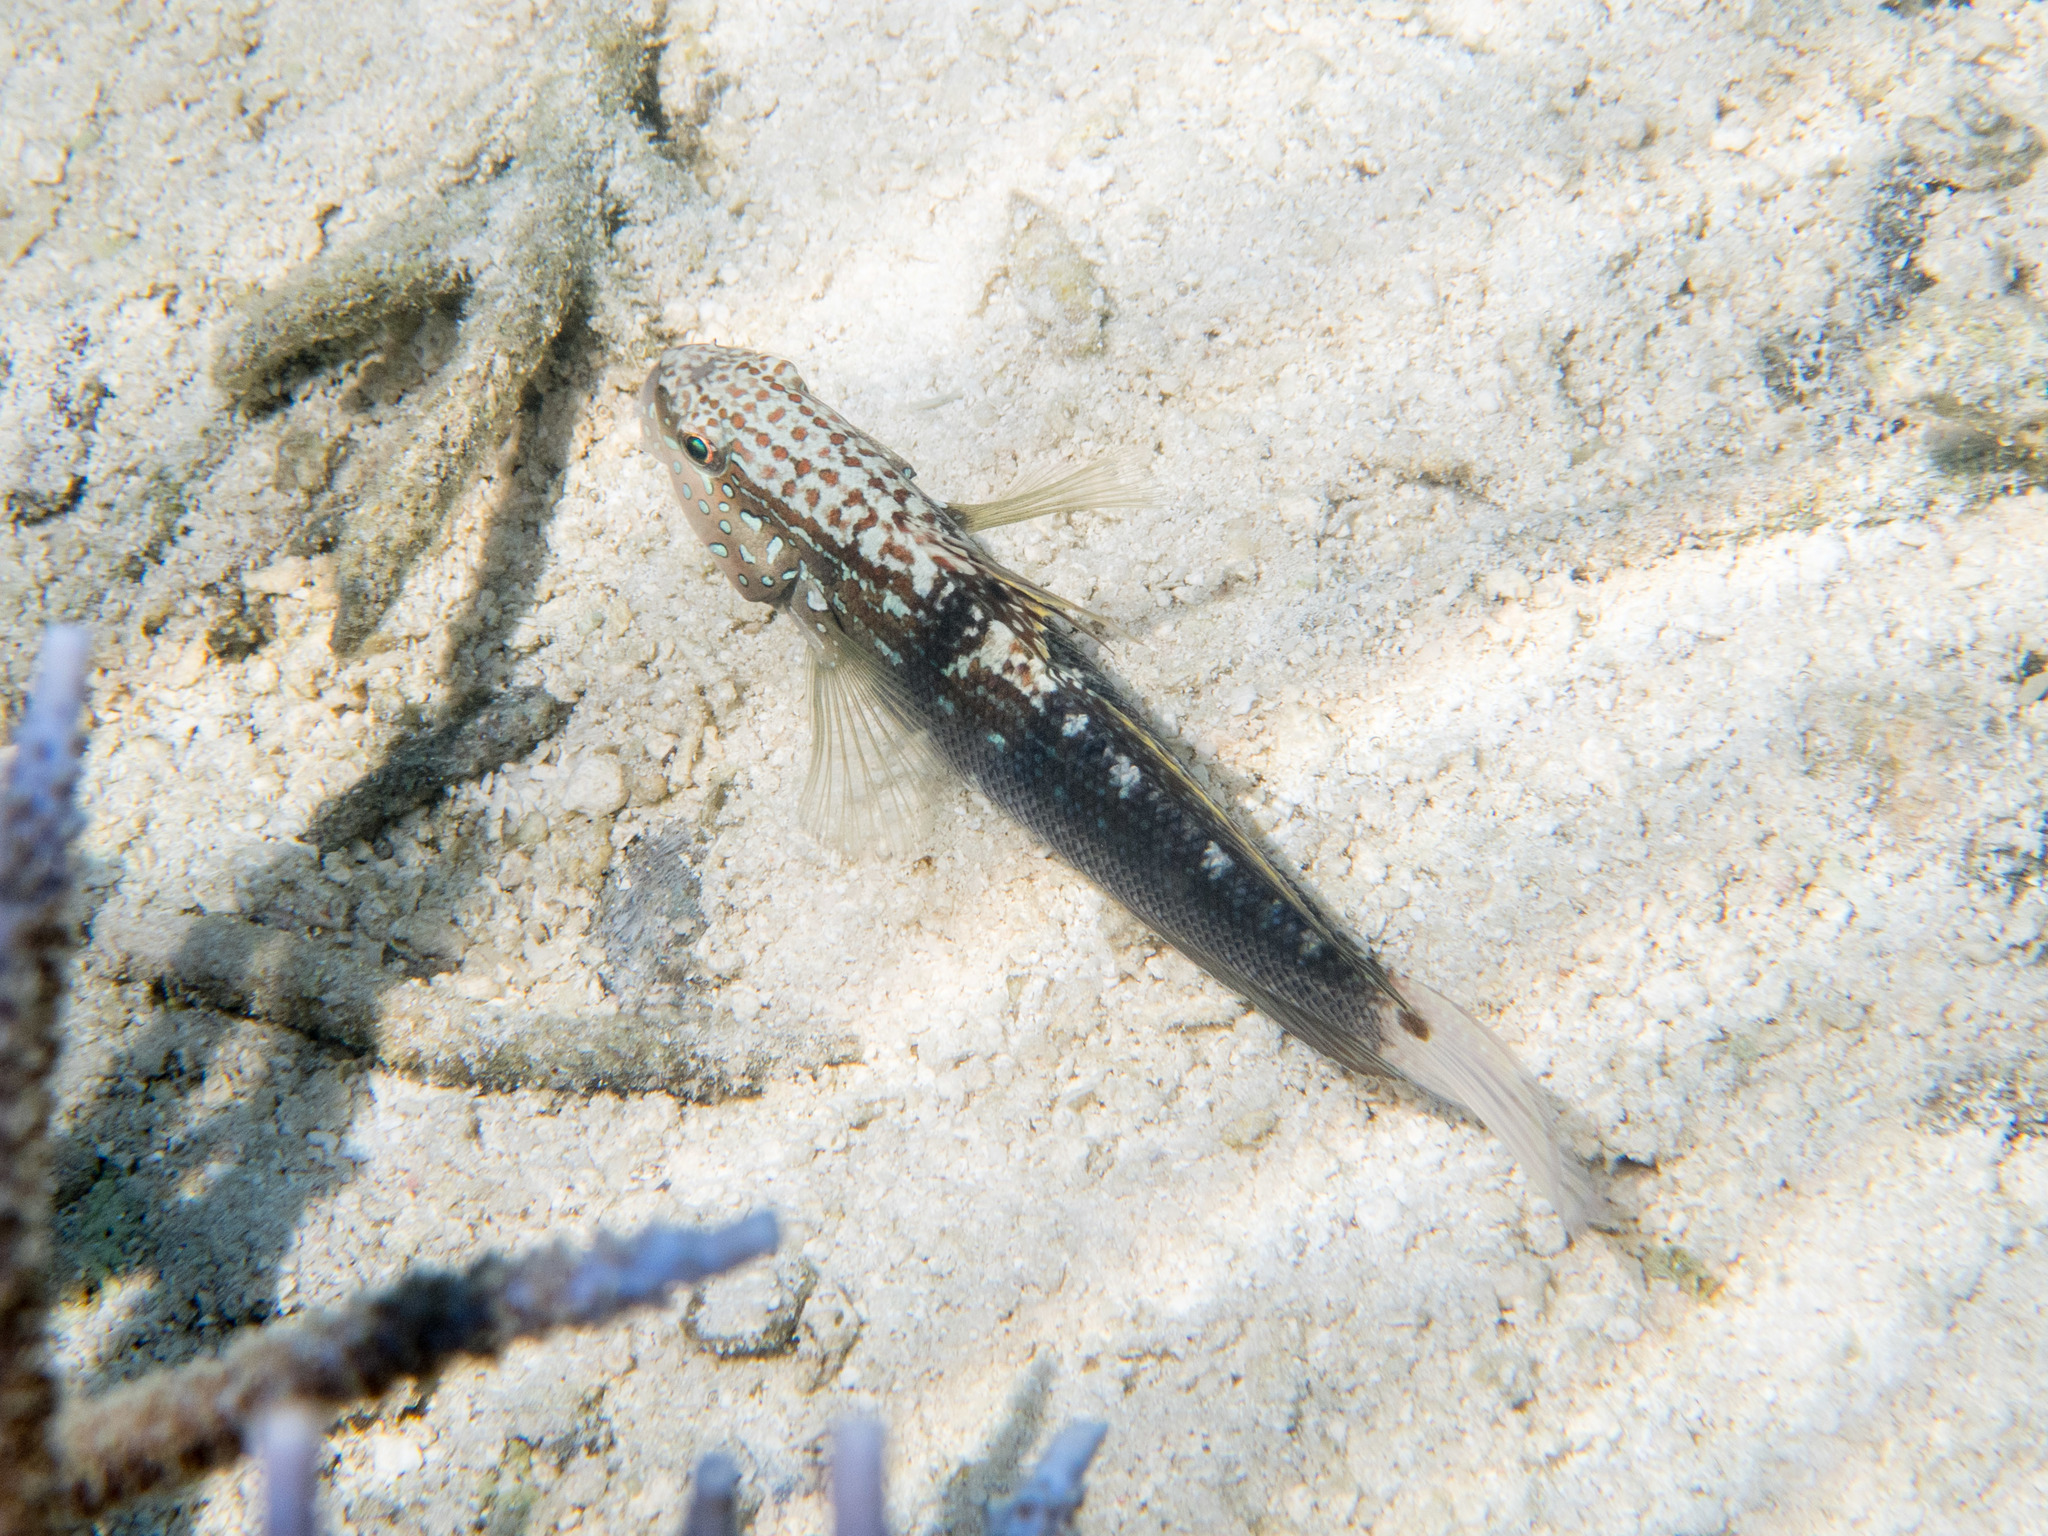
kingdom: Animalia
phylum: Chordata
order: Perciformes
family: Gobiidae
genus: Amblygobius
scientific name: Amblygobius semicinctus
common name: Halfbarred goby
